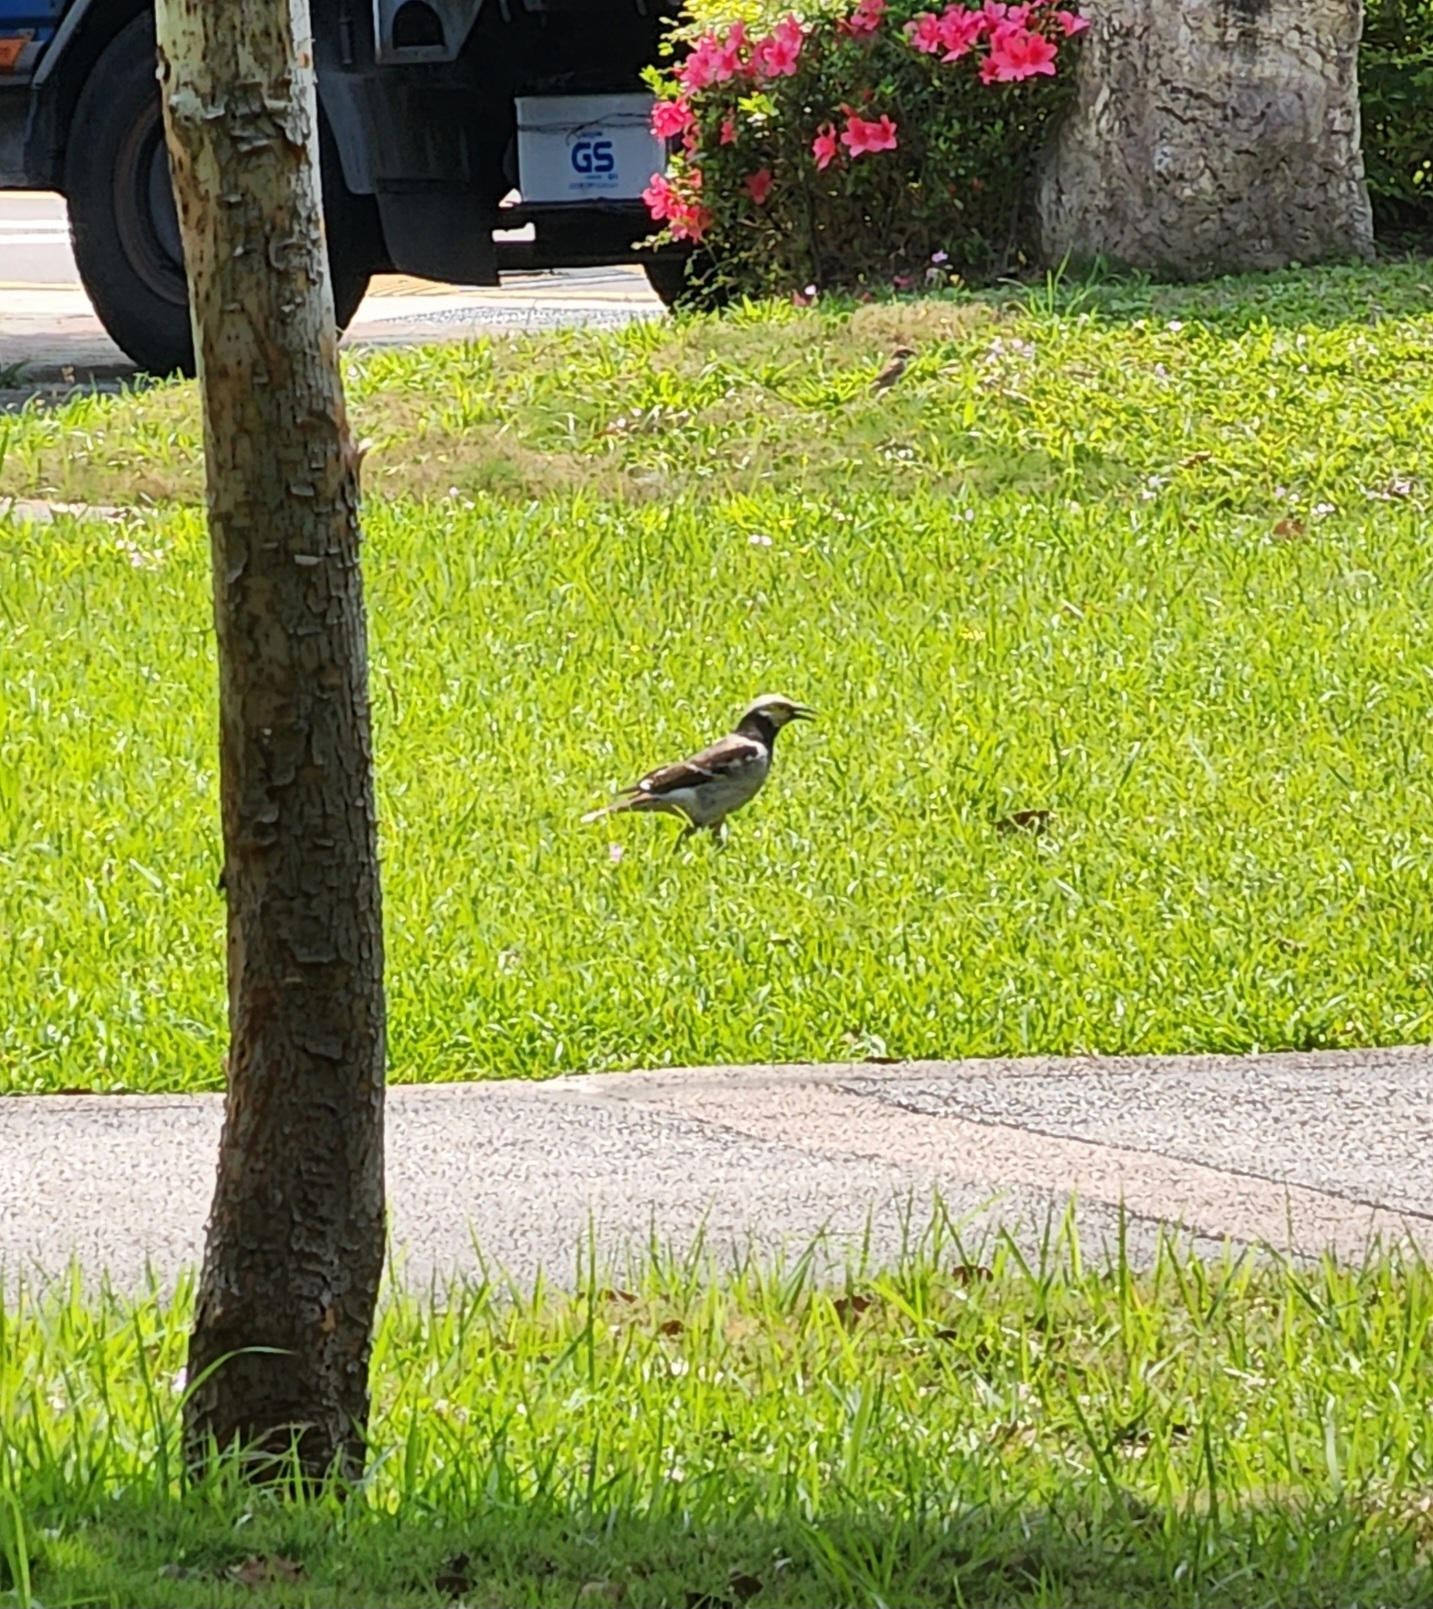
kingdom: Animalia
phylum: Chordata
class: Aves
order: Passeriformes
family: Sturnidae
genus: Gracupica
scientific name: Gracupica nigricollis
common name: Black-collared starling
